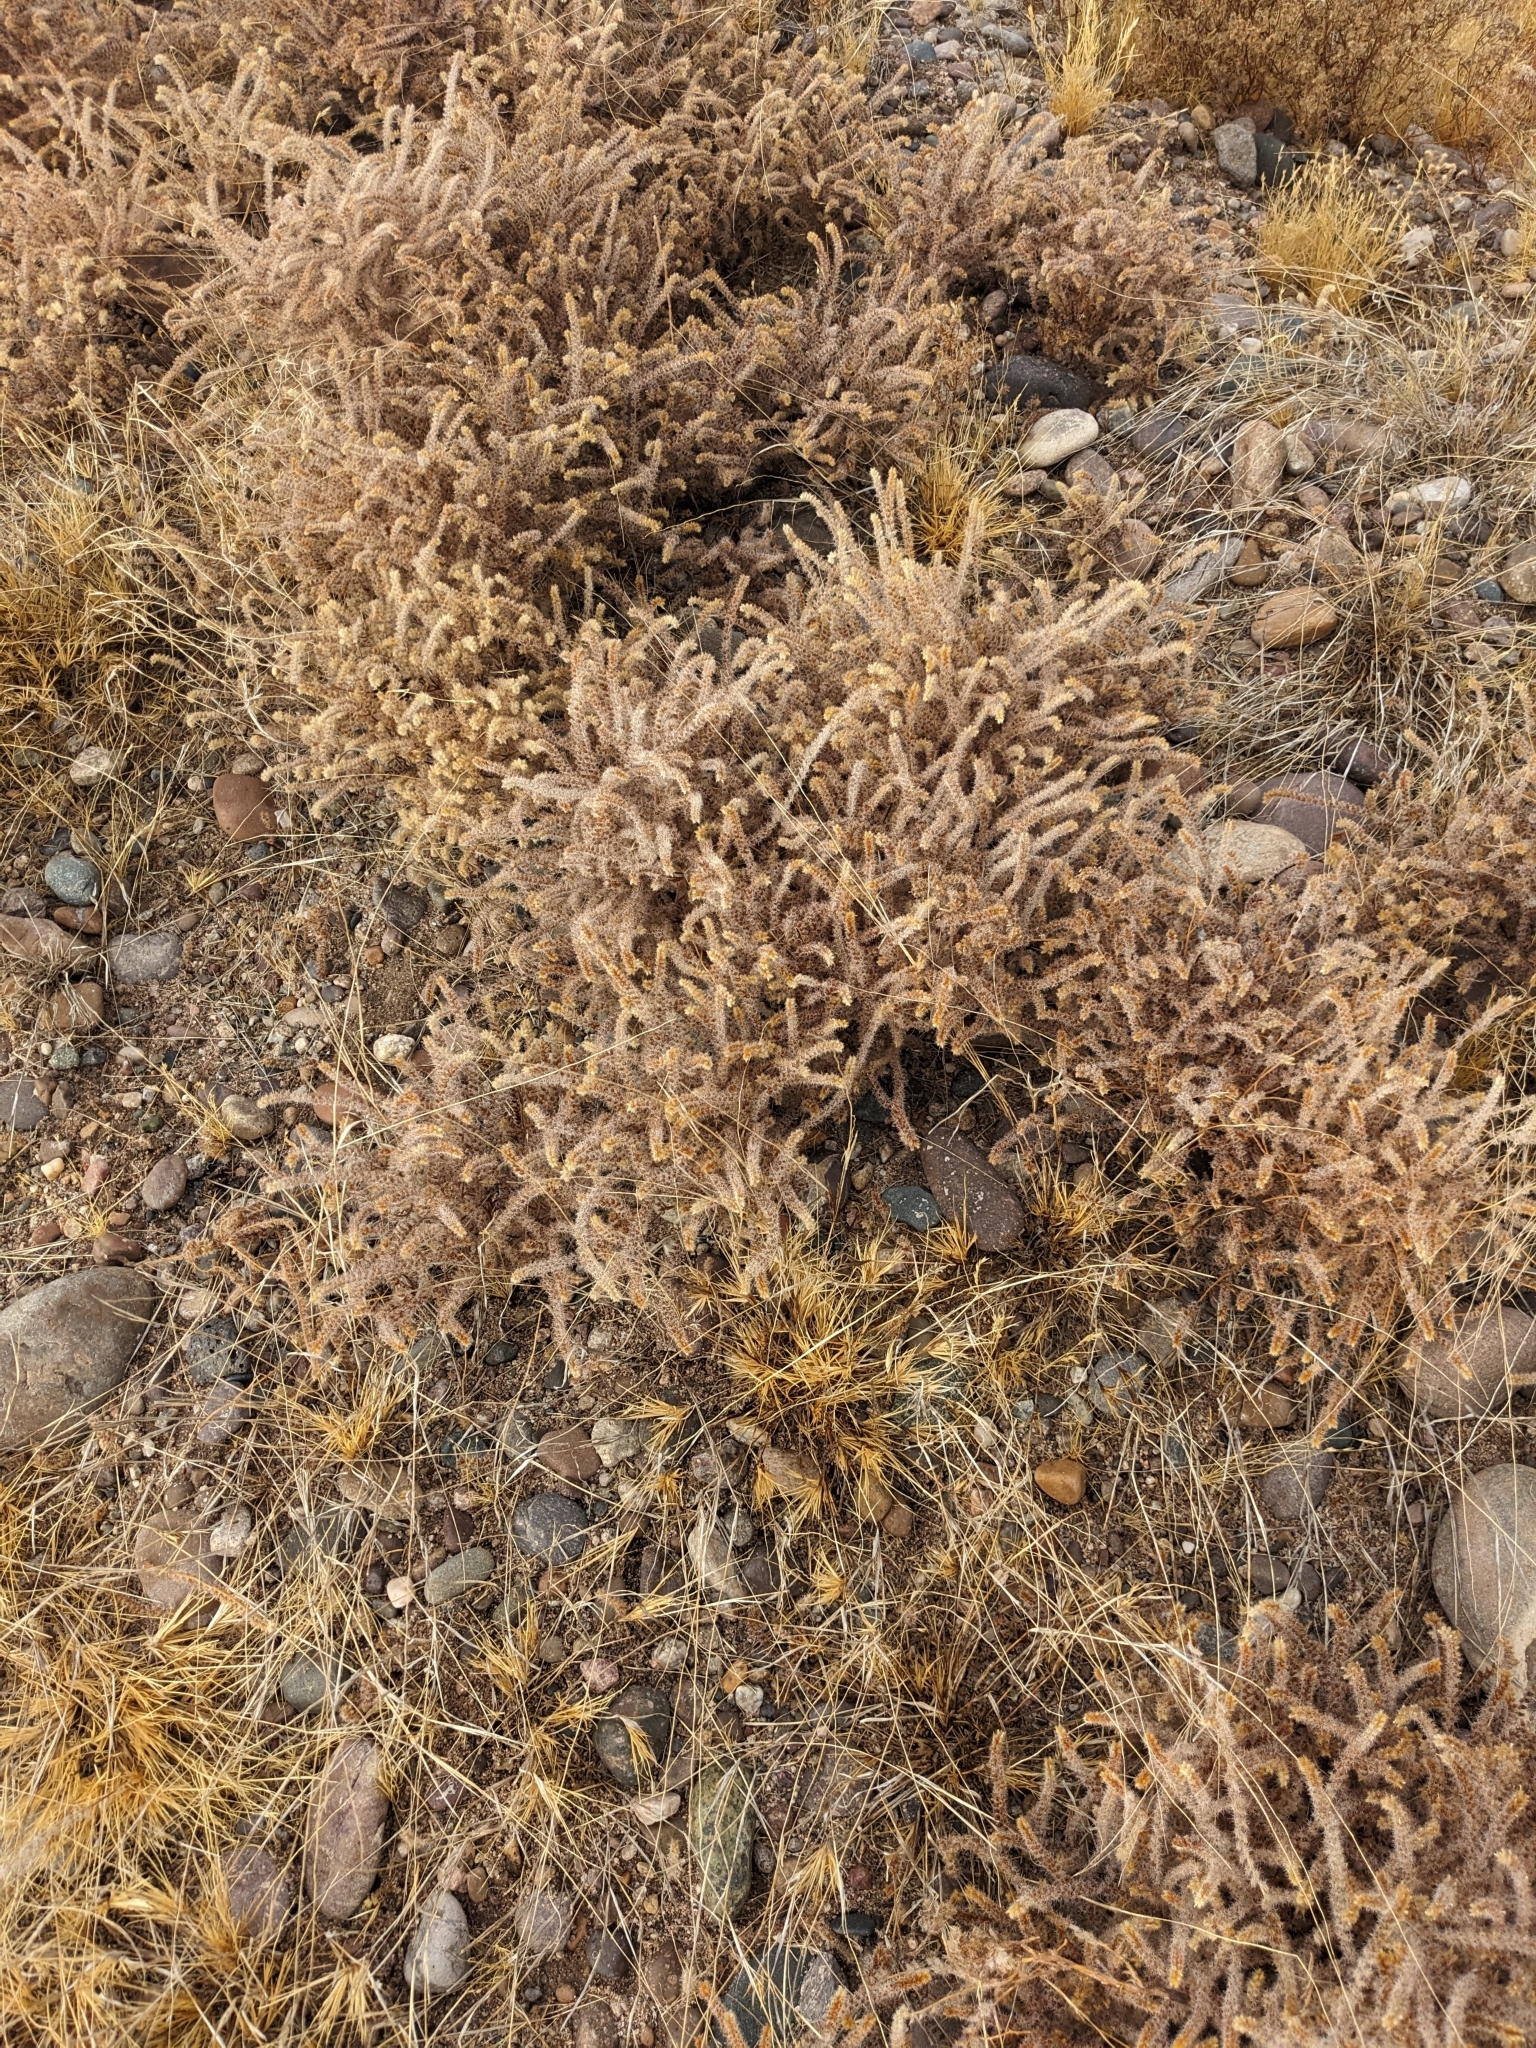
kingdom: Plantae
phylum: Tracheophyta
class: Magnoliopsida
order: Boraginales
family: Boraginaceae
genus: Johnstonella
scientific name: Johnstonella angustifolia
